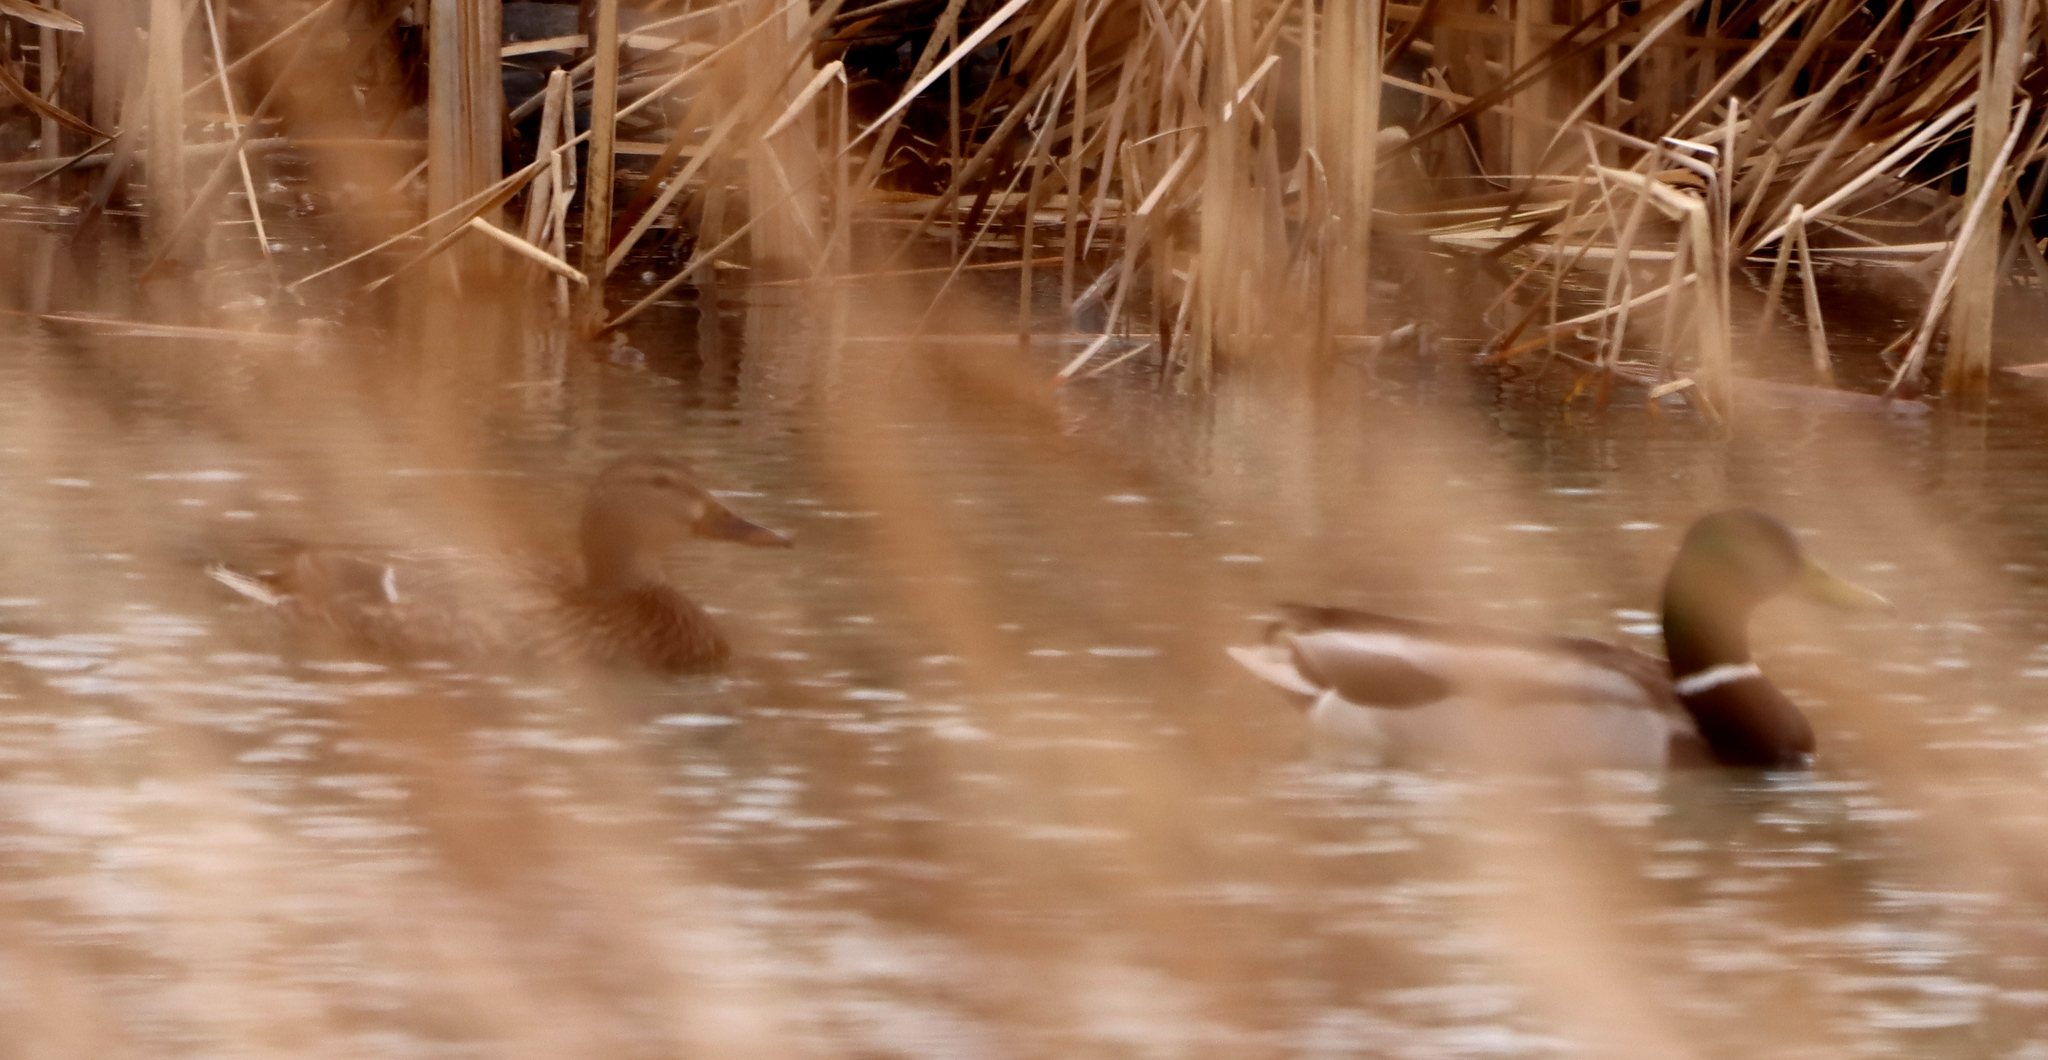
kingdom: Animalia
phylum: Chordata
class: Aves
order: Anseriformes
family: Anatidae
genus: Anas
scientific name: Anas platyrhynchos
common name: Mallard
